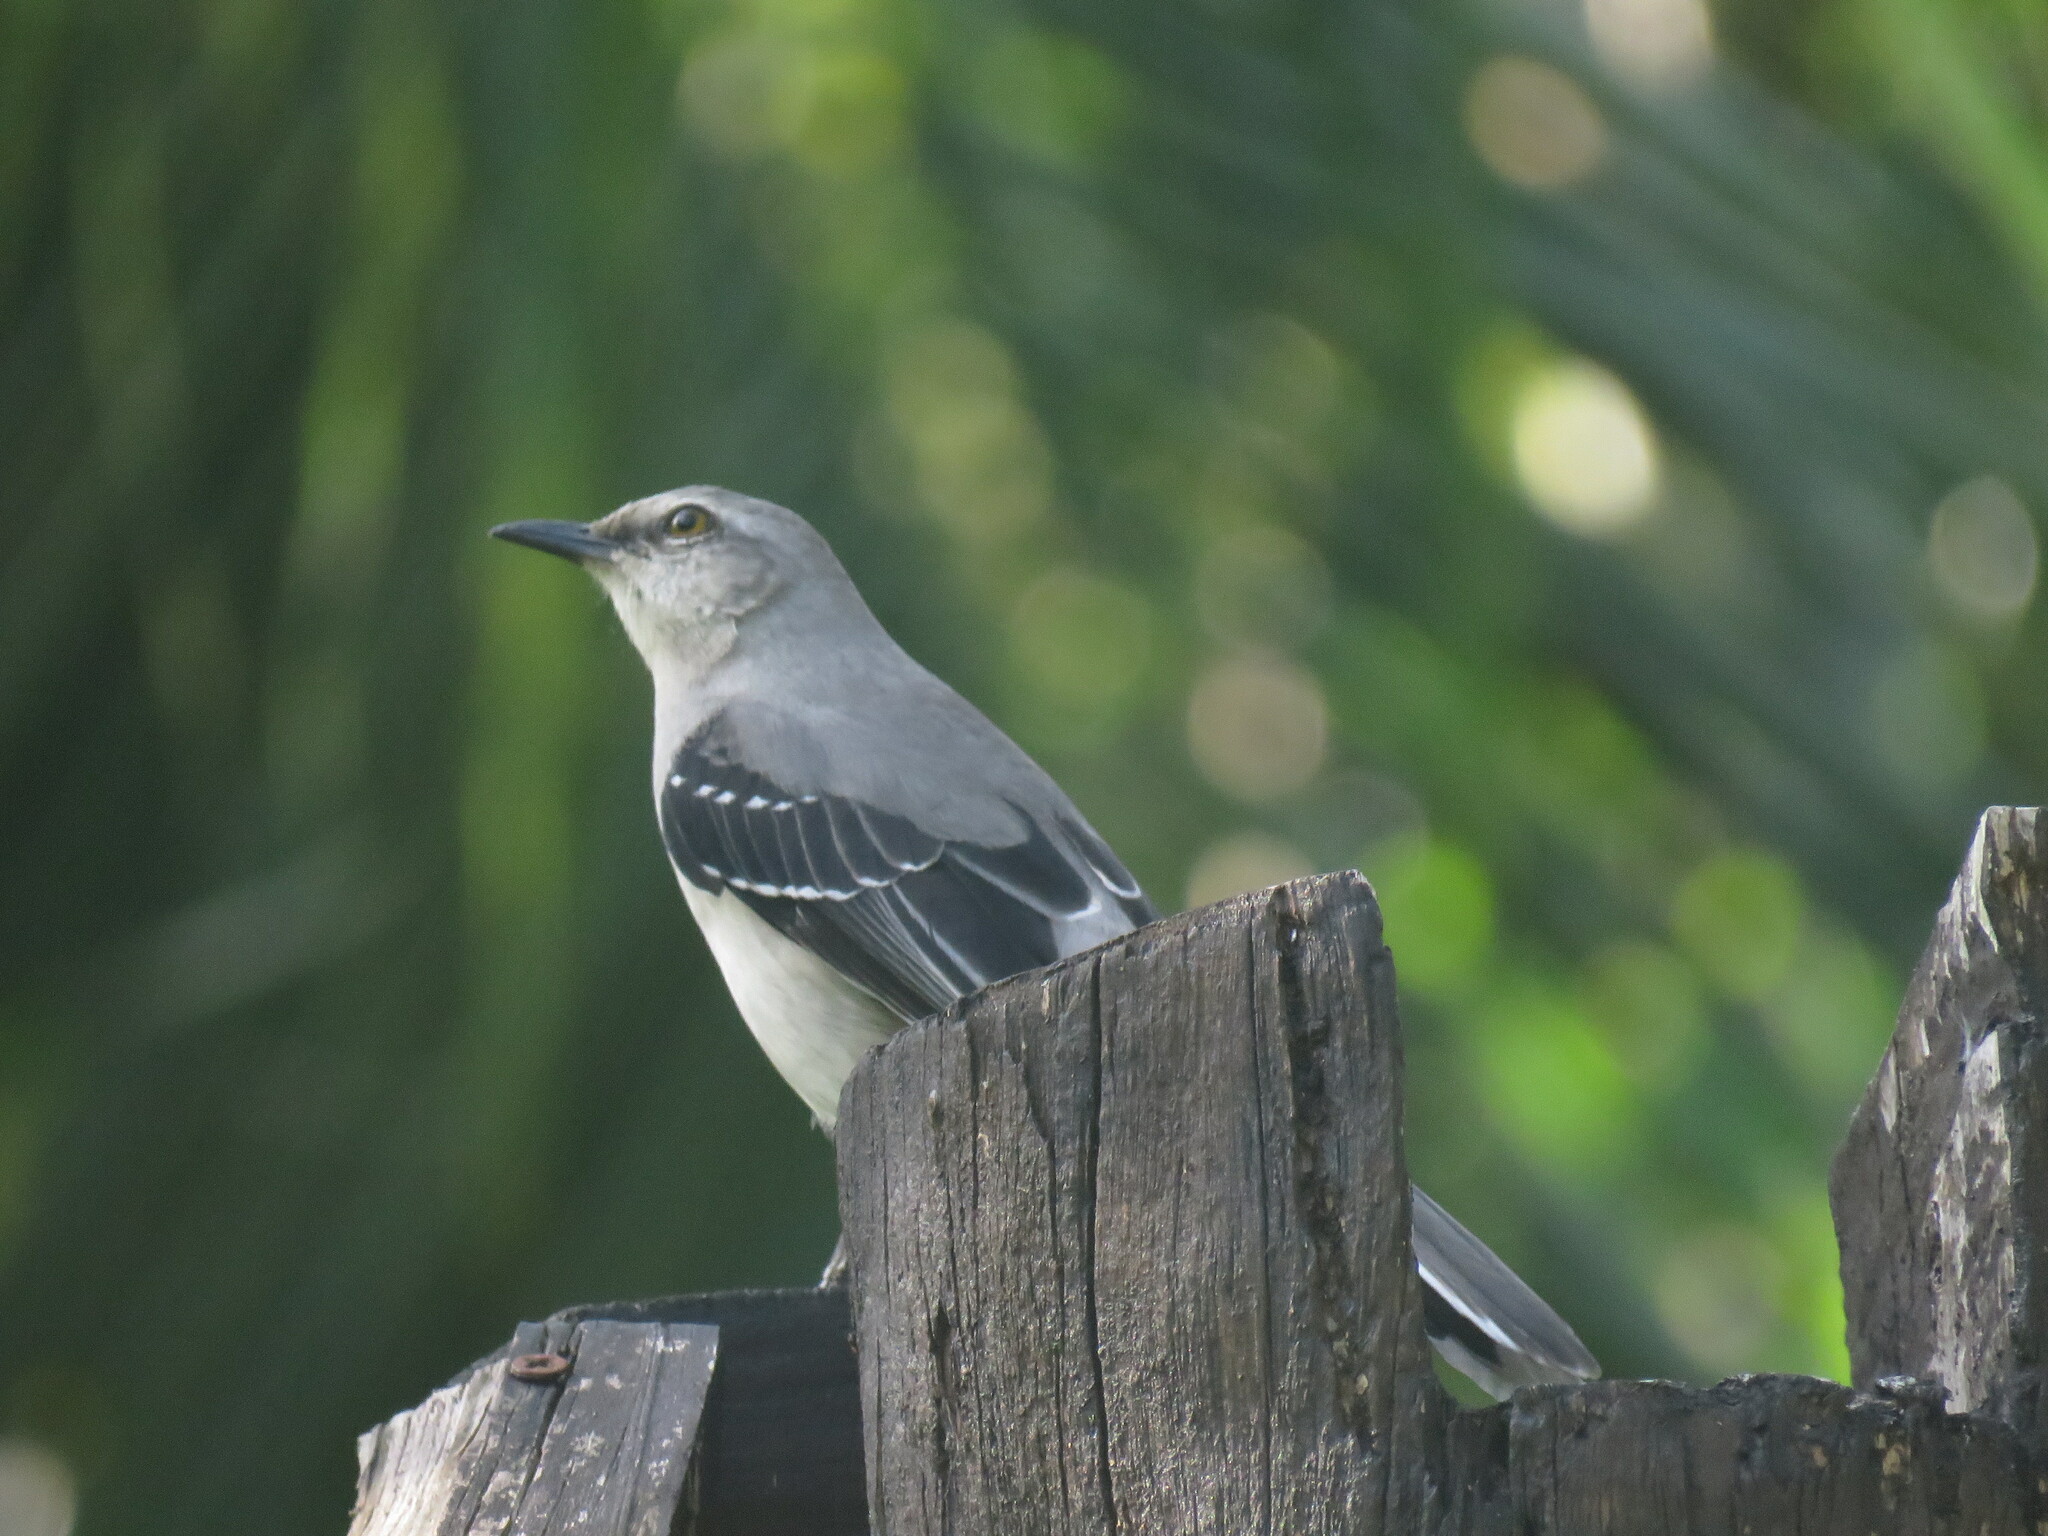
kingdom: Animalia
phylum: Chordata
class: Aves
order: Passeriformes
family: Mimidae
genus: Mimus
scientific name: Mimus gilvus
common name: Tropical mockingbird
